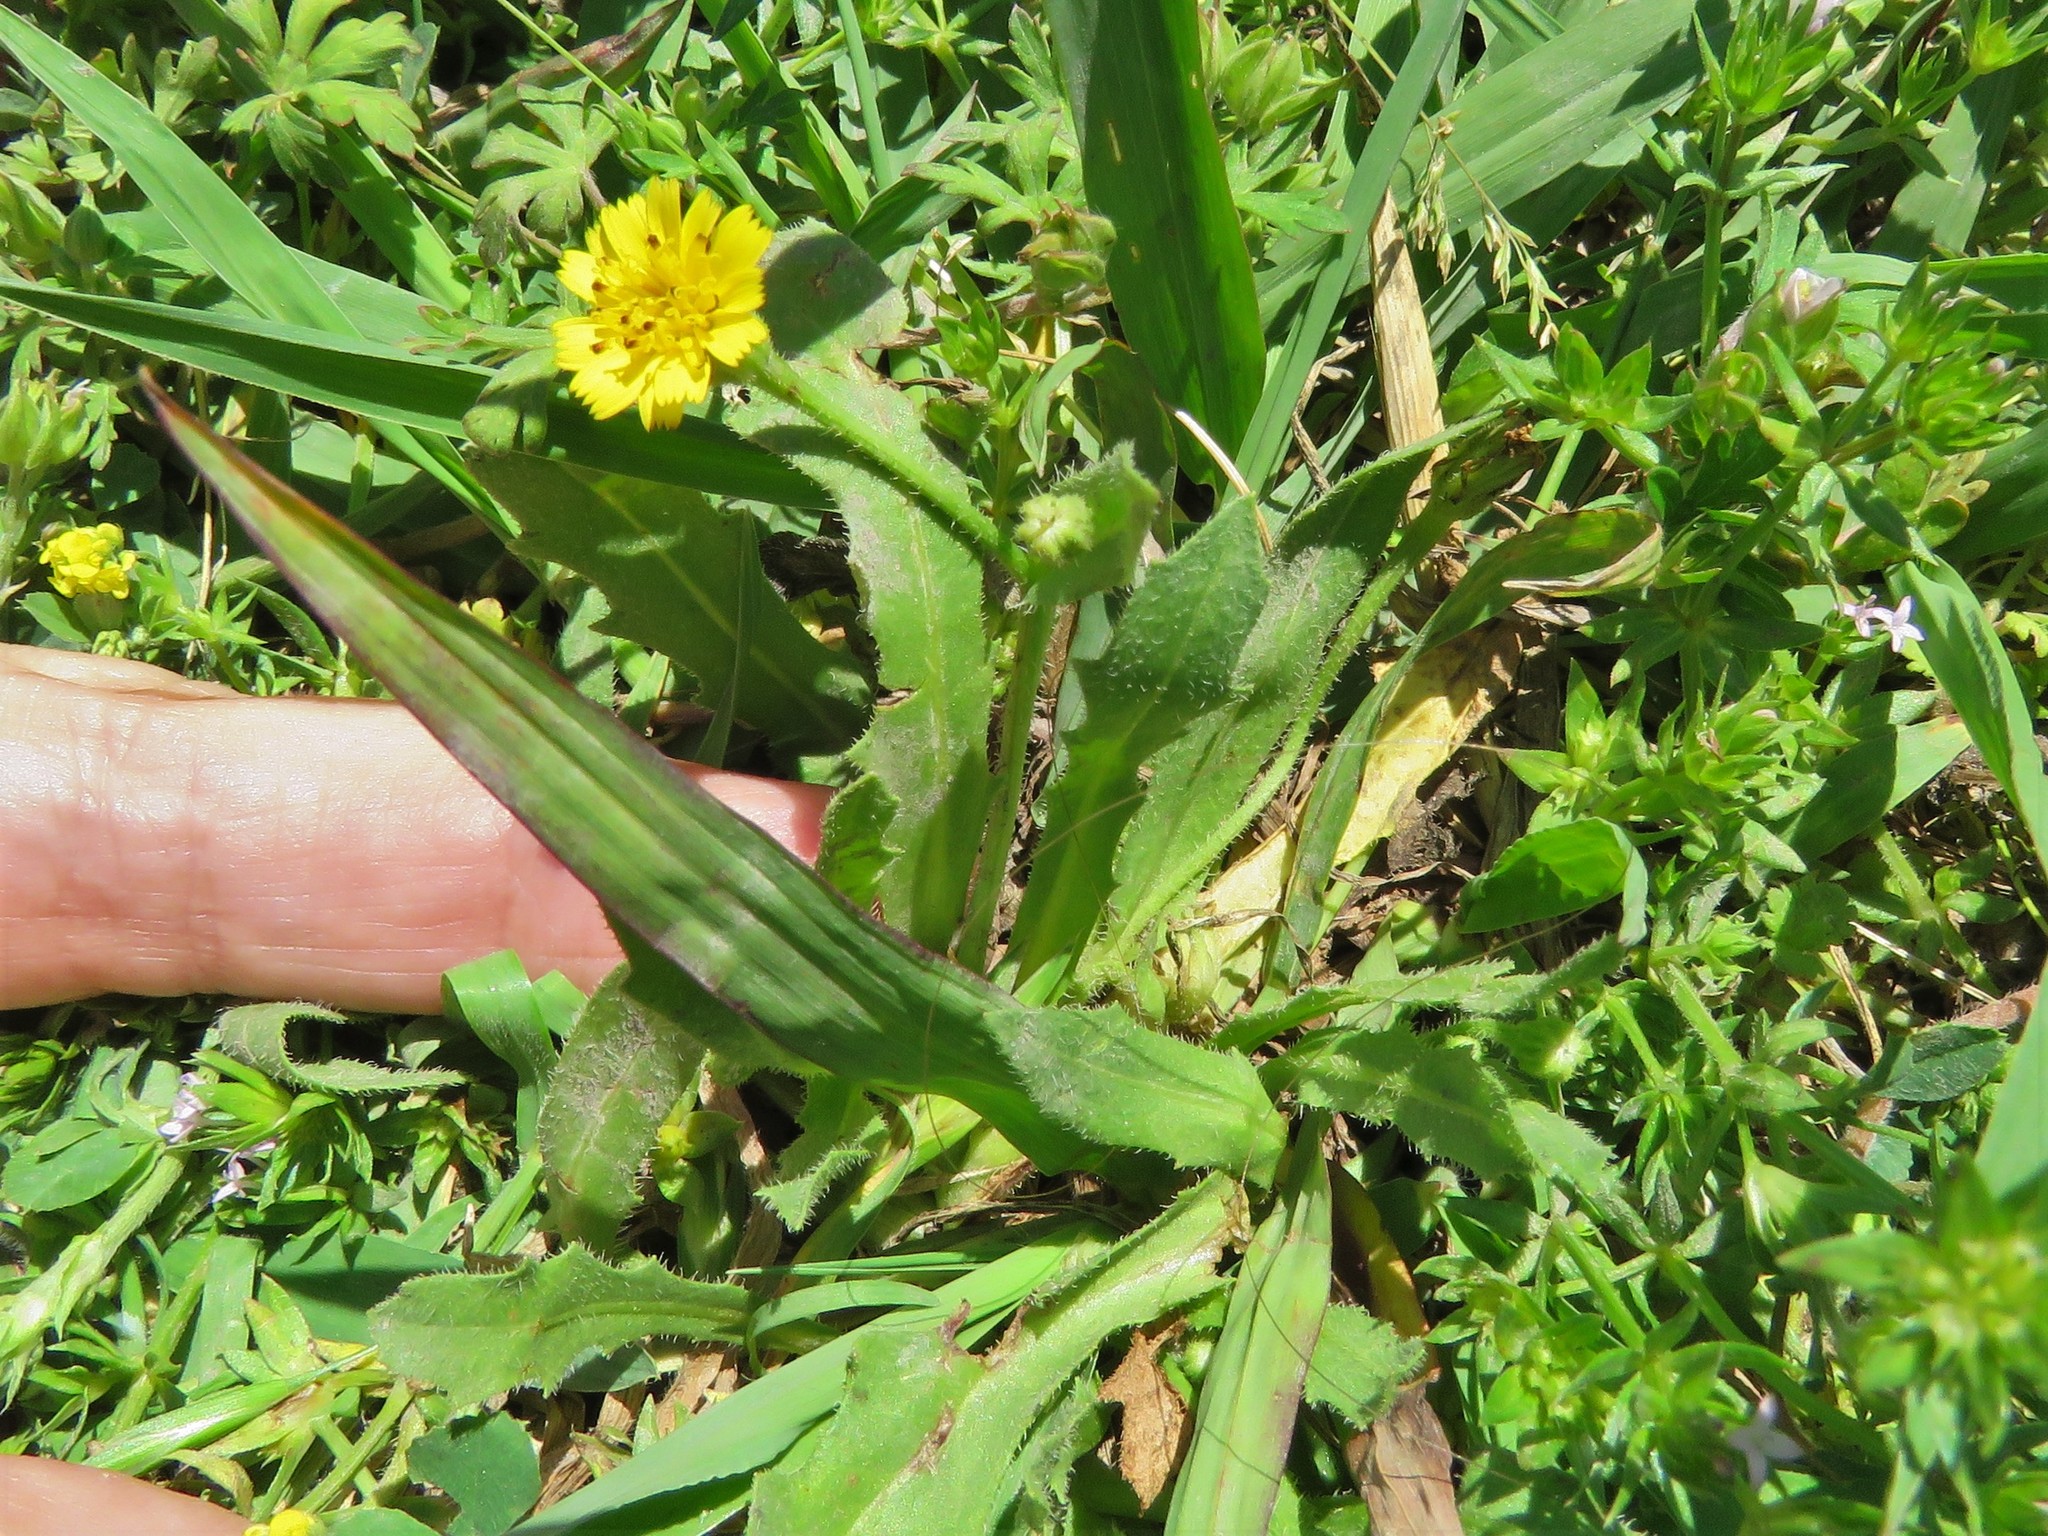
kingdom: Plantae
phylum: Tracheophyta
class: Magnoliopsida
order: Asterales
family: Asteraceae
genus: Hedypnois
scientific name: Hedypnois rhagadioloides
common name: Cretan weed
